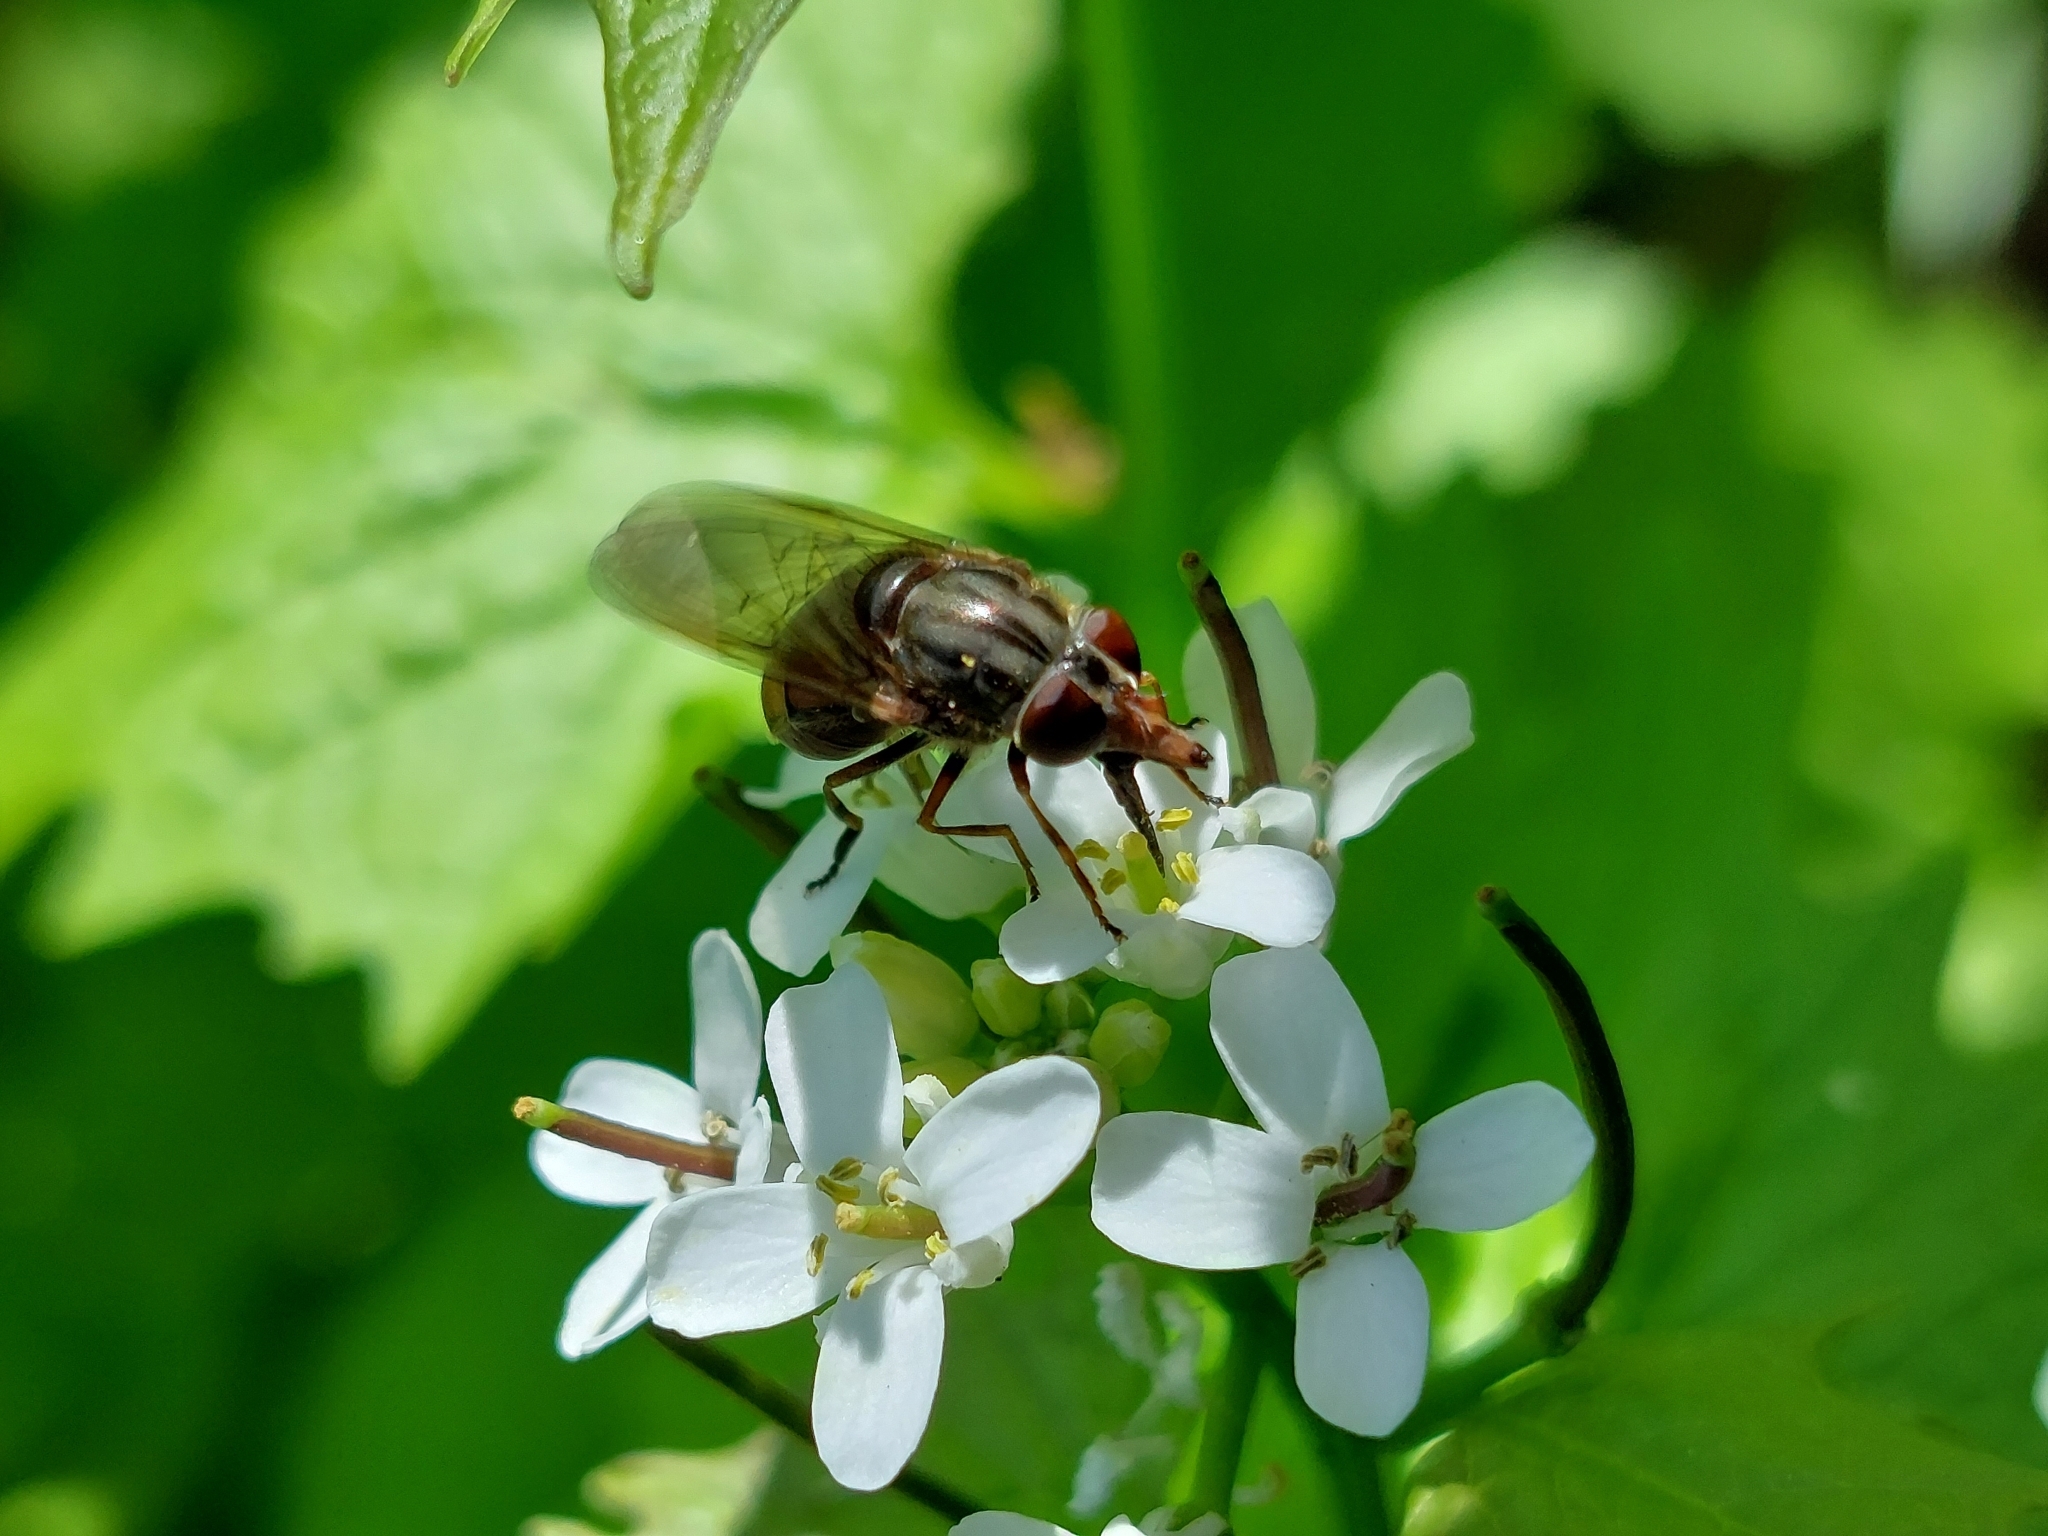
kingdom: Animalia
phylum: Arthropoda
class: Insecta
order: Diptera
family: Syrphidae
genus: Rhingia
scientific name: Rhingia campestris
